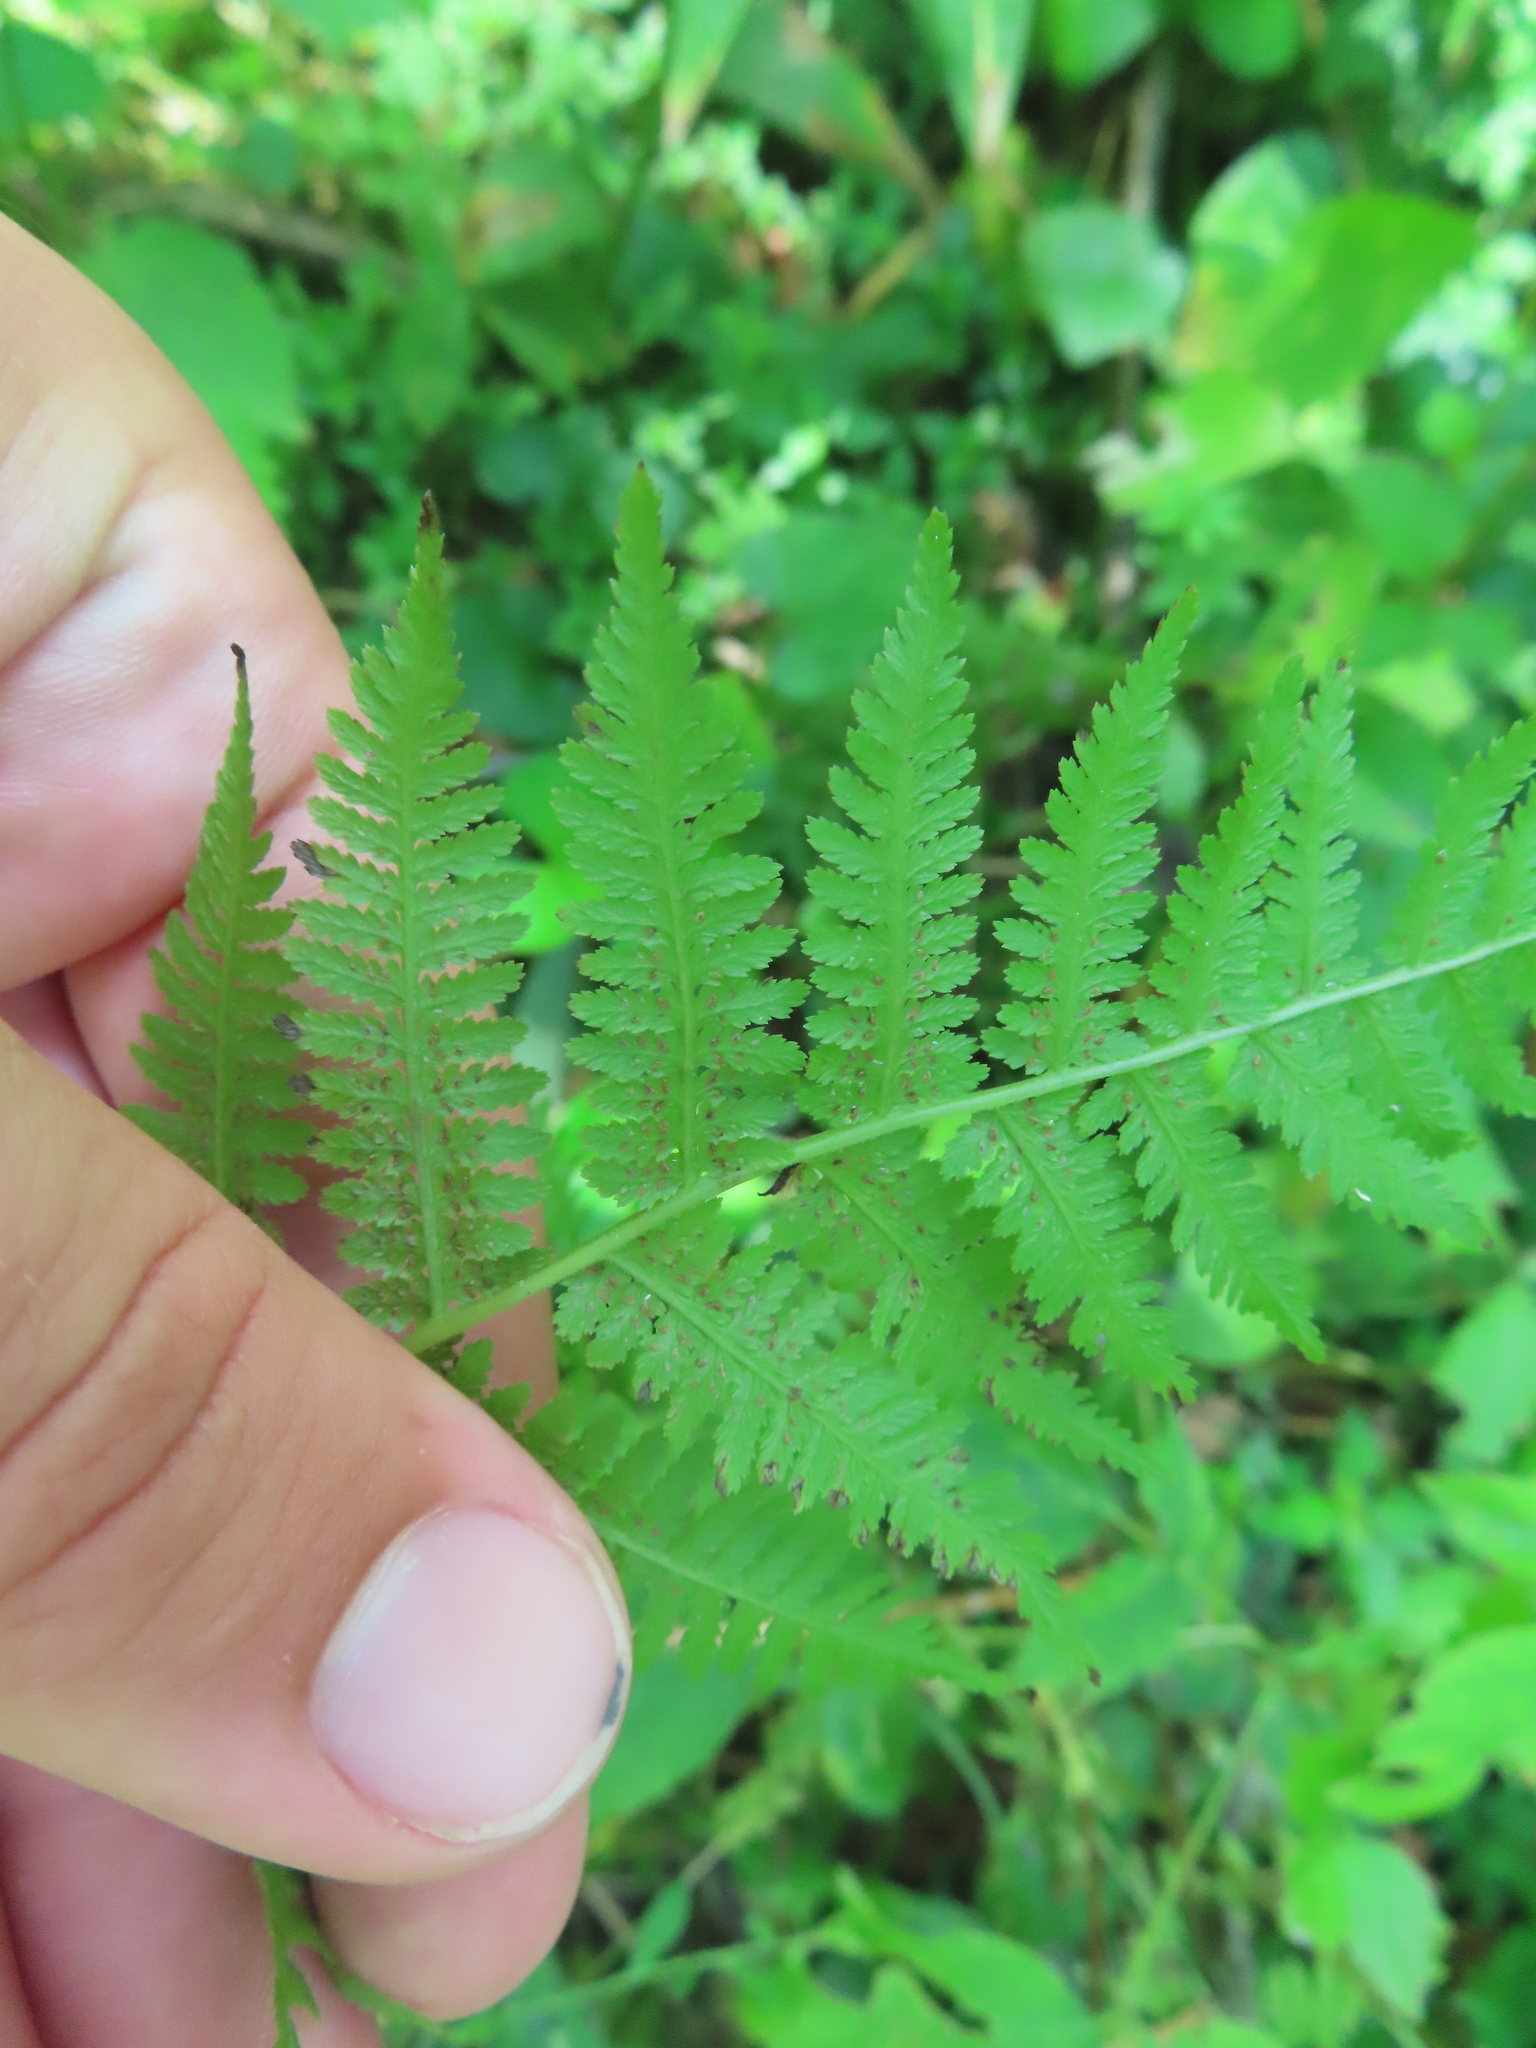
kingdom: Plantae
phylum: Tracheophyta
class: Polypodiopsida
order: Polypodiales
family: Athyriaceae
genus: Athyrium
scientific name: Athyrium angustum
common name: Northern lady fern
